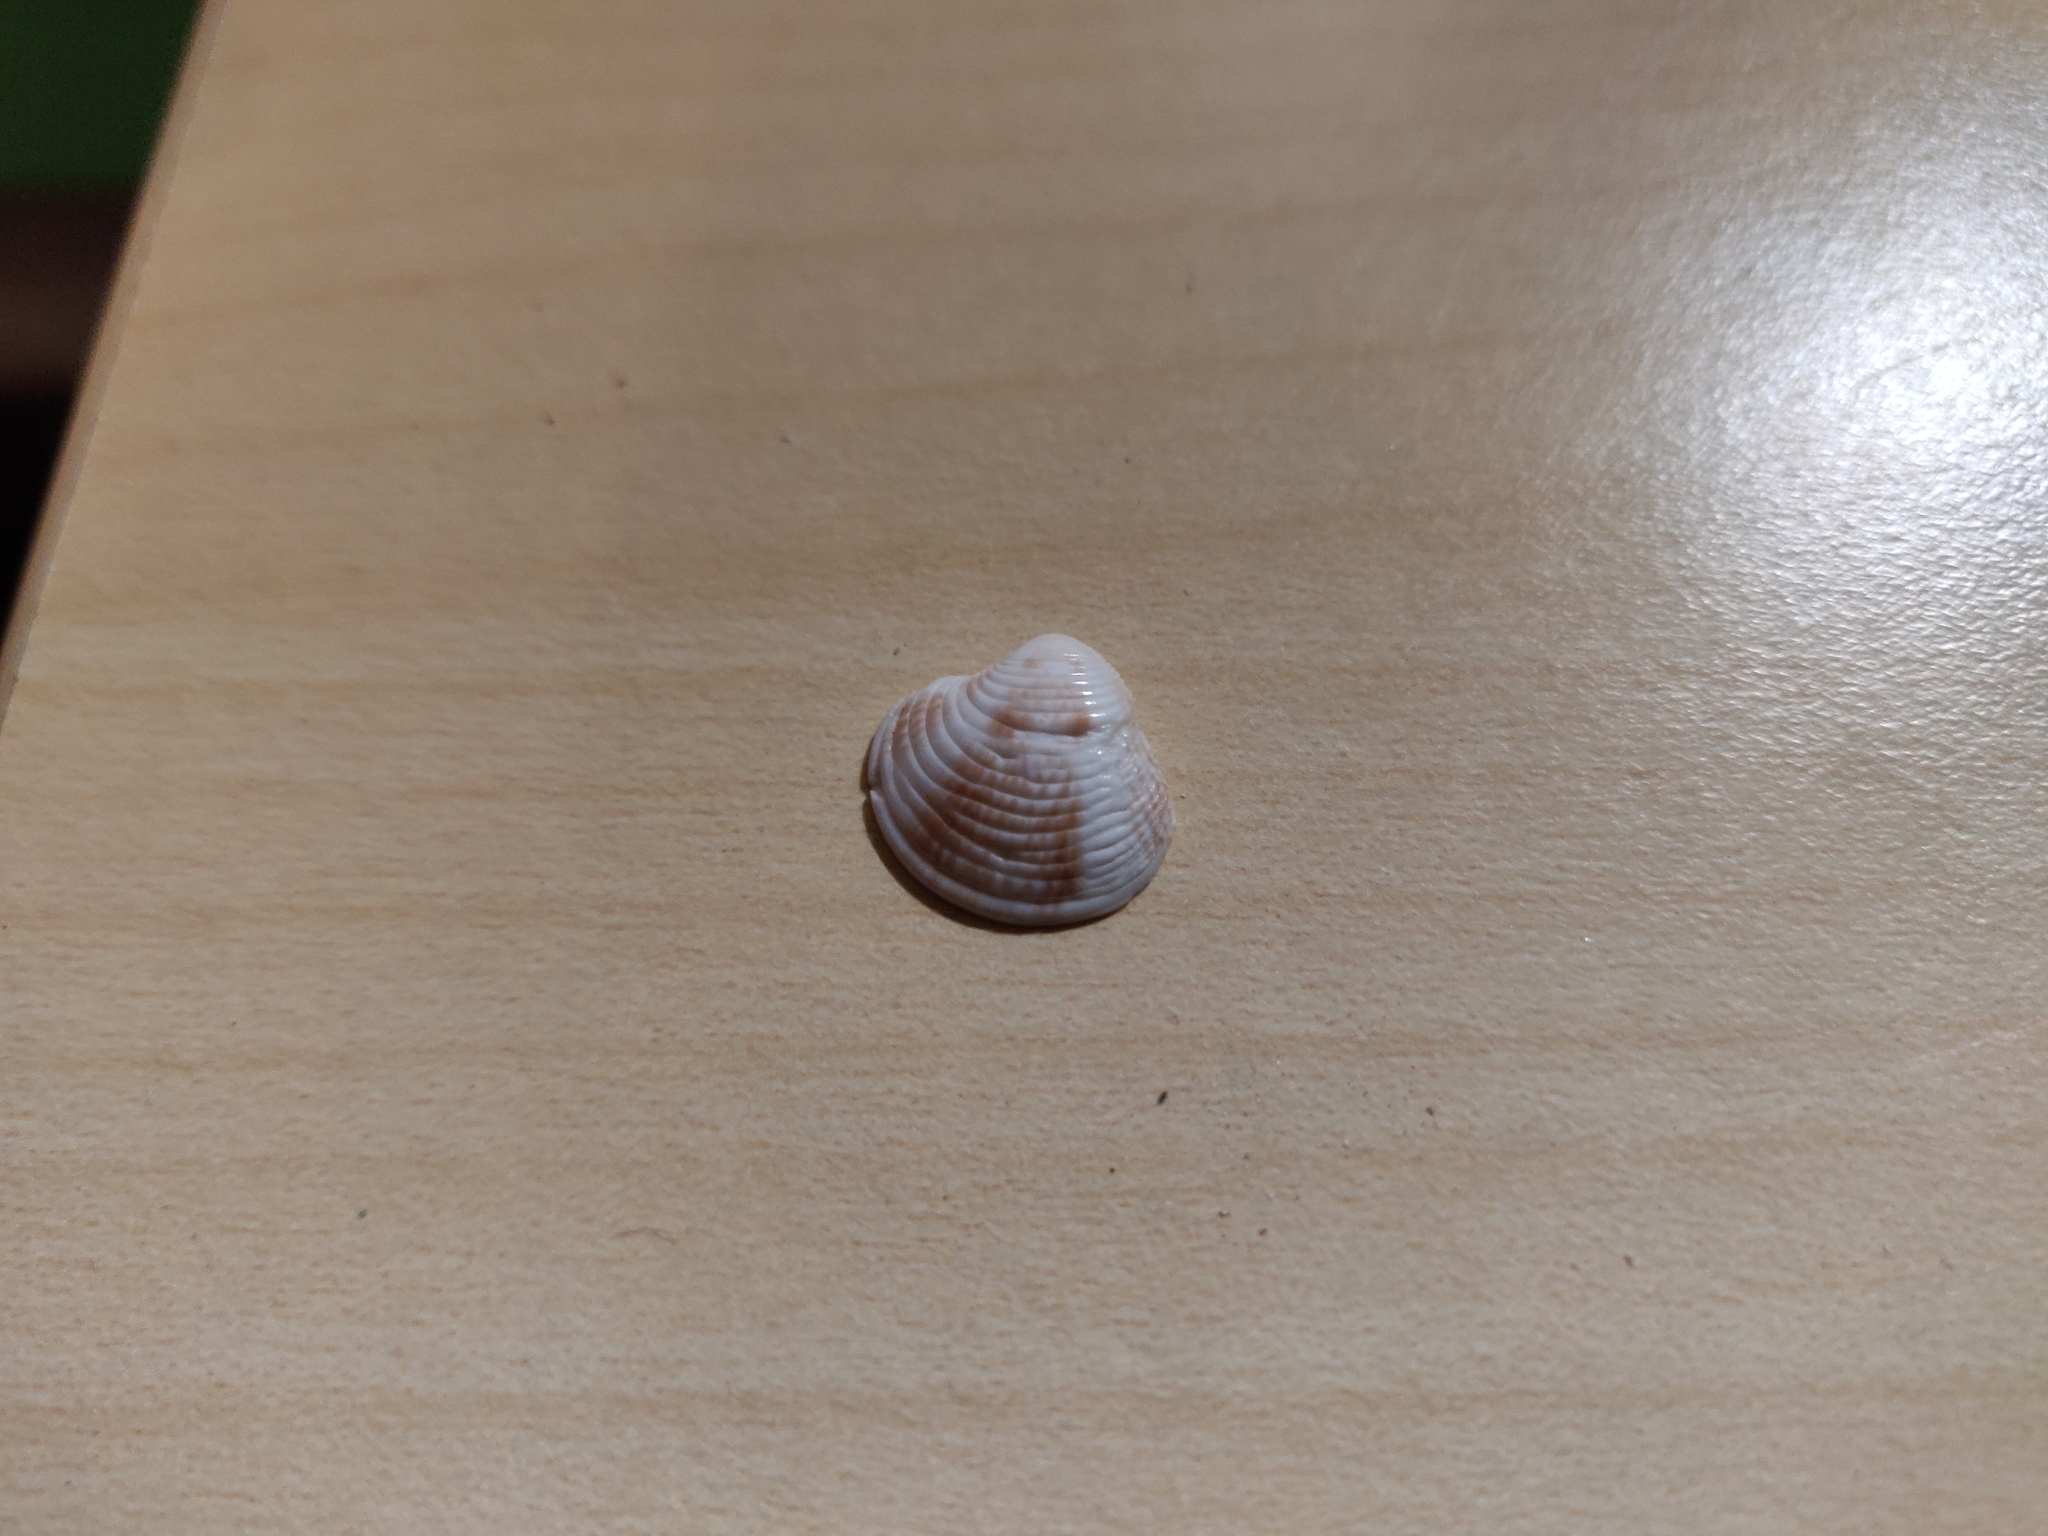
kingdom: Animalia
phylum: Mollusca
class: Bivalvia
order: Venerida
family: Veneridae
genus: Chamelea
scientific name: Chamelea gallina
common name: Chicken venus
